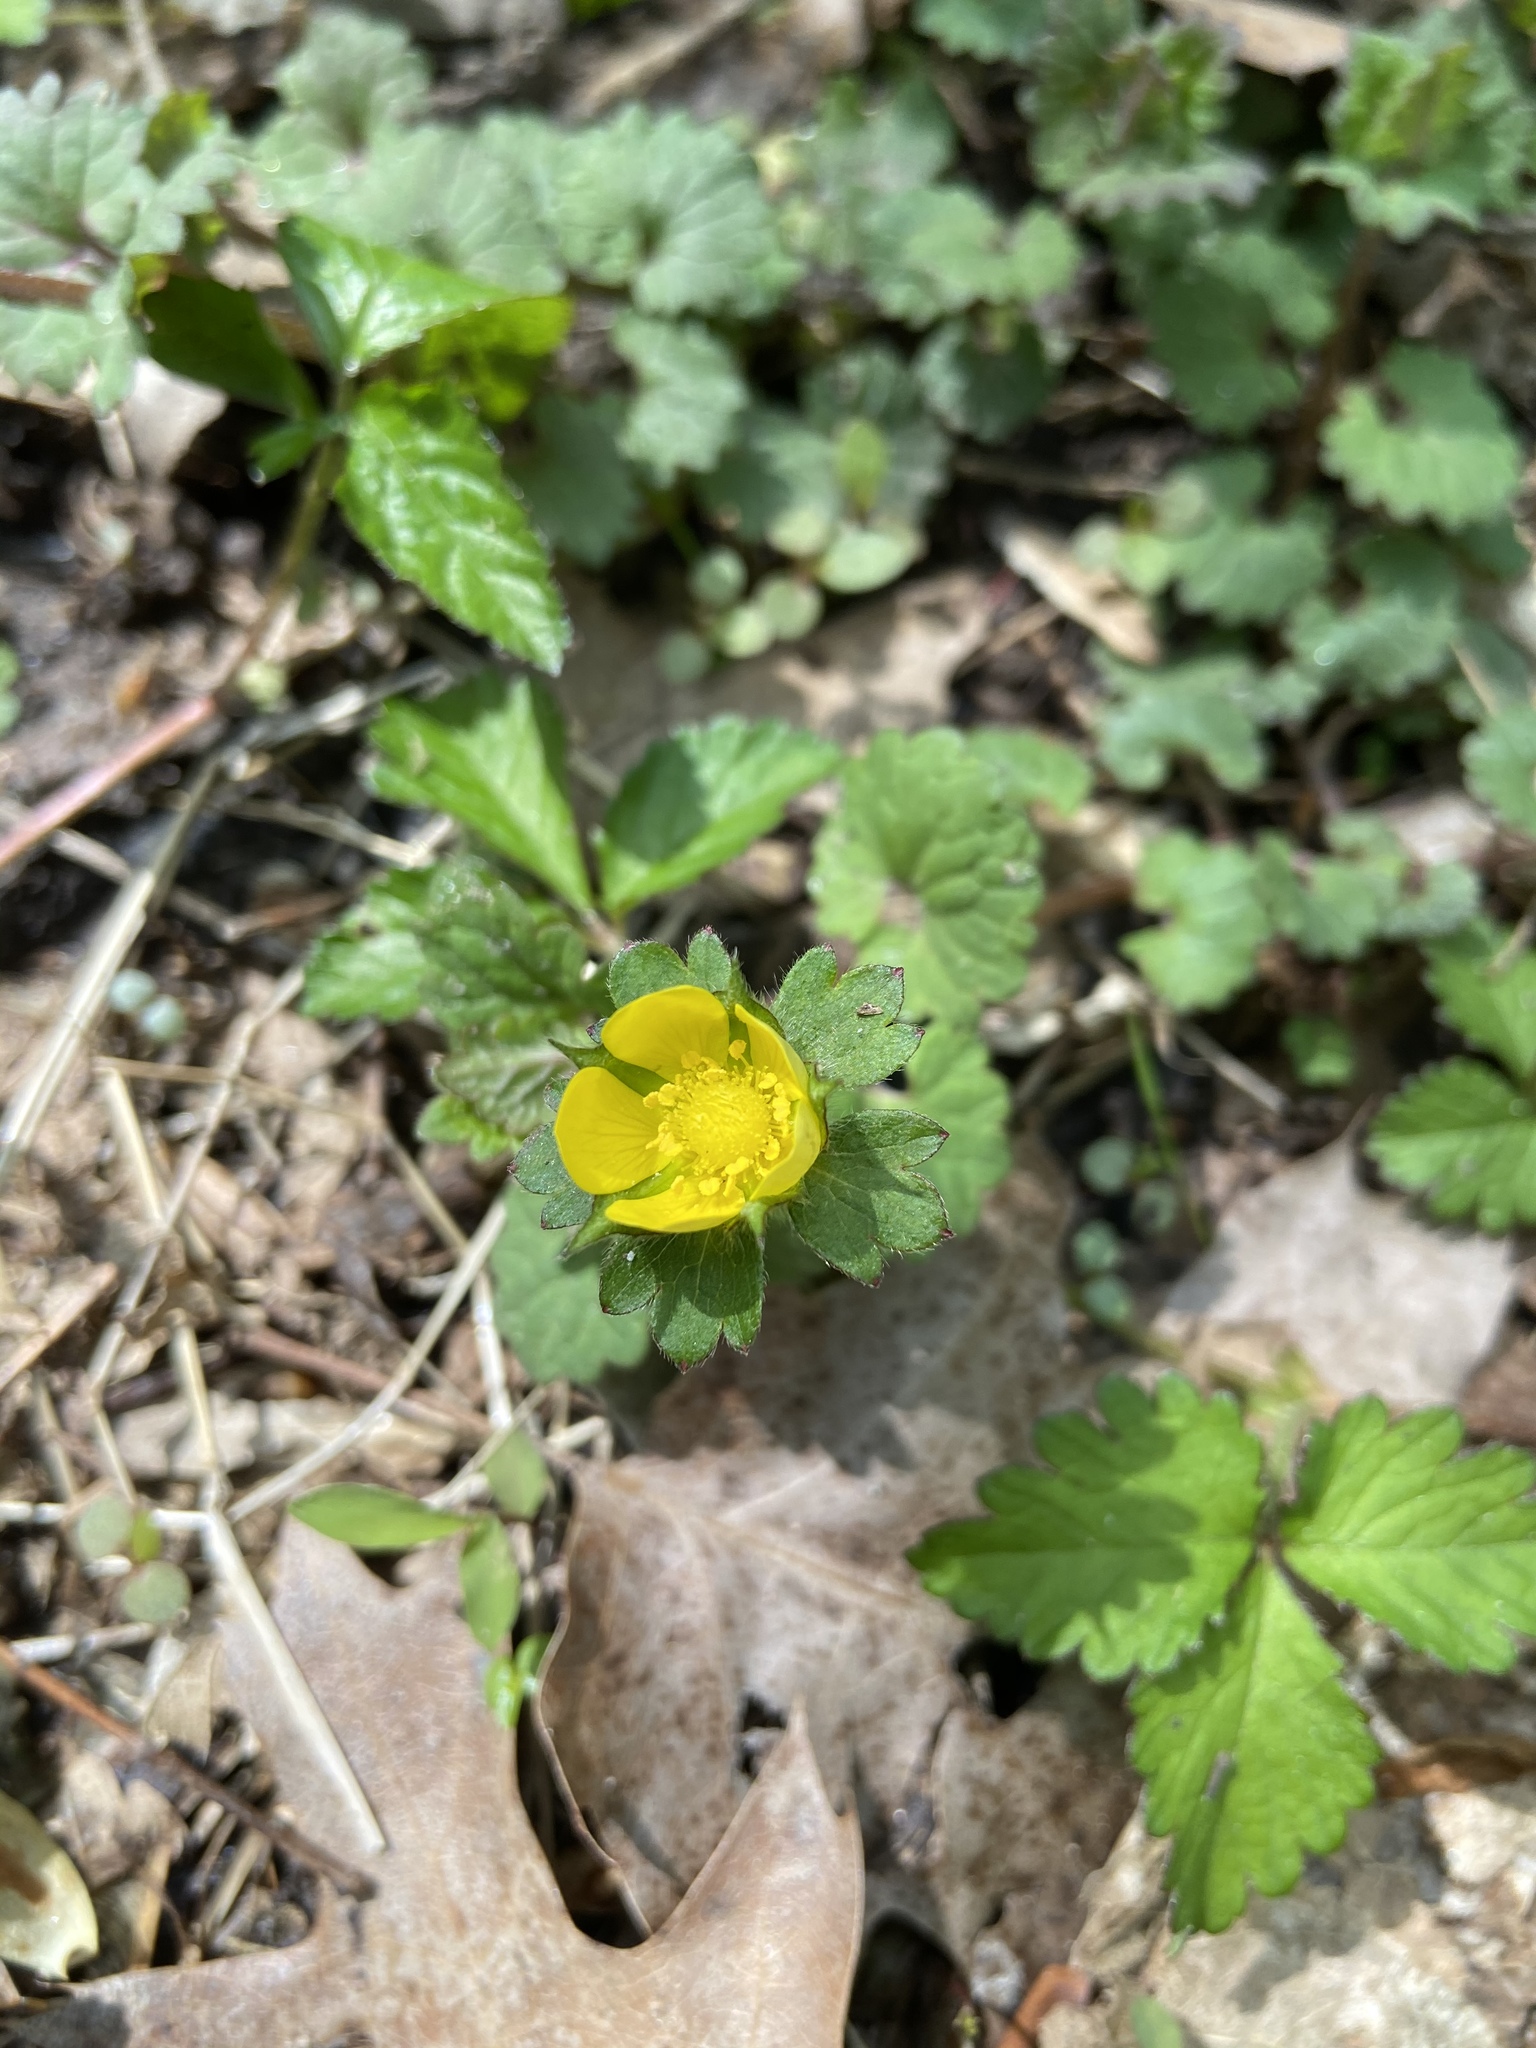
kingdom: Plantae
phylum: Tracheophyta
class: Magnoliopsida
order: Rosales
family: Rosaceae
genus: Potentilla
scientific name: Potentilla indica
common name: Yellow-flowered strawberry
